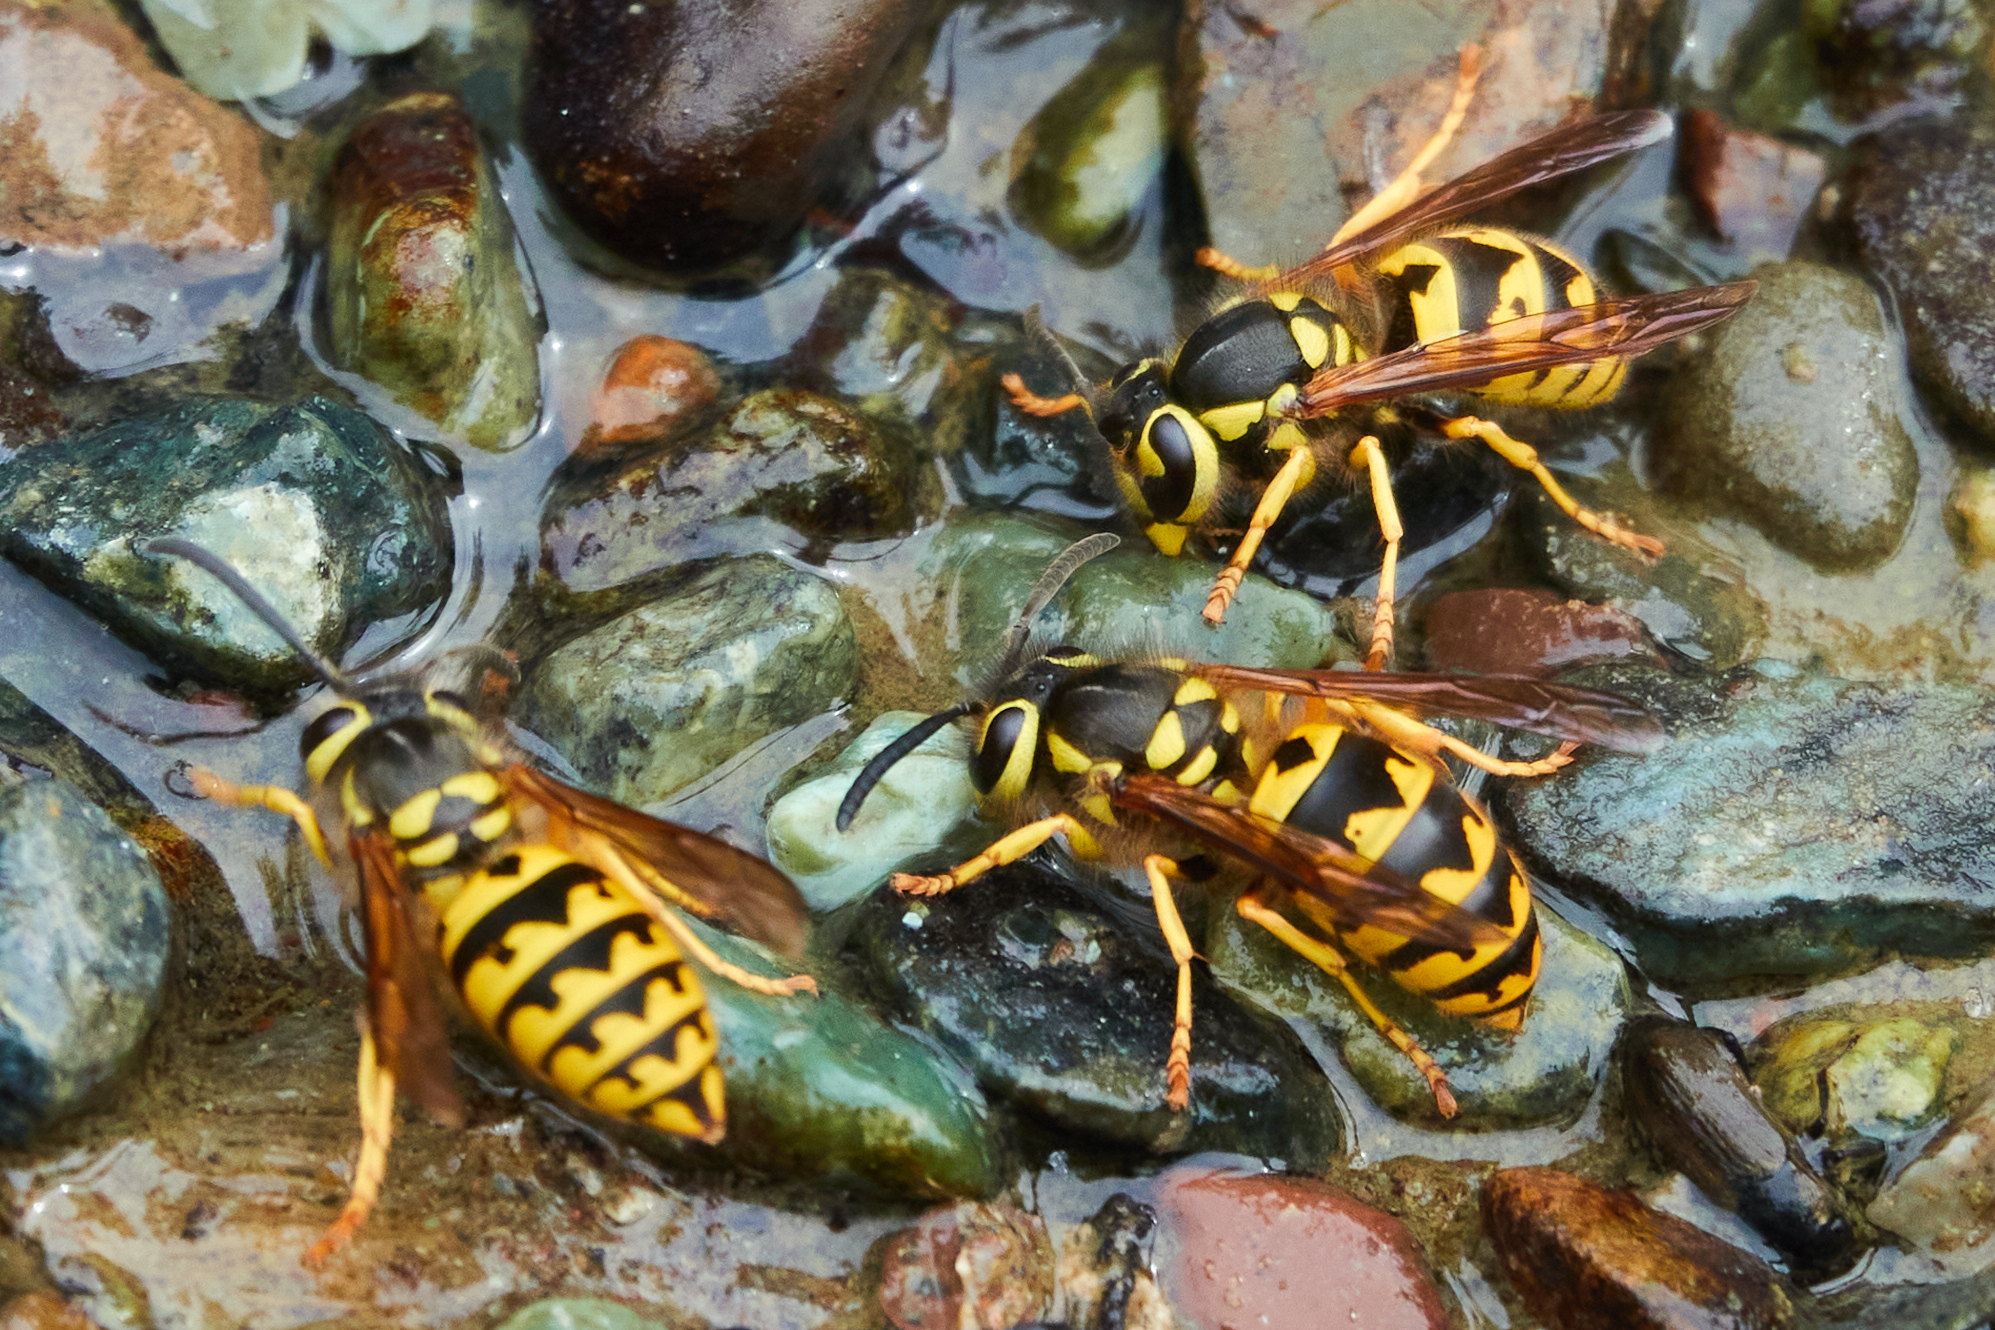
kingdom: Animalia
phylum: Arthropoda
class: Insecta
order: Hymenoptera
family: Vespidae
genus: Vespula
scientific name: Vespula pensylvanica
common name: Western yellowjacket
